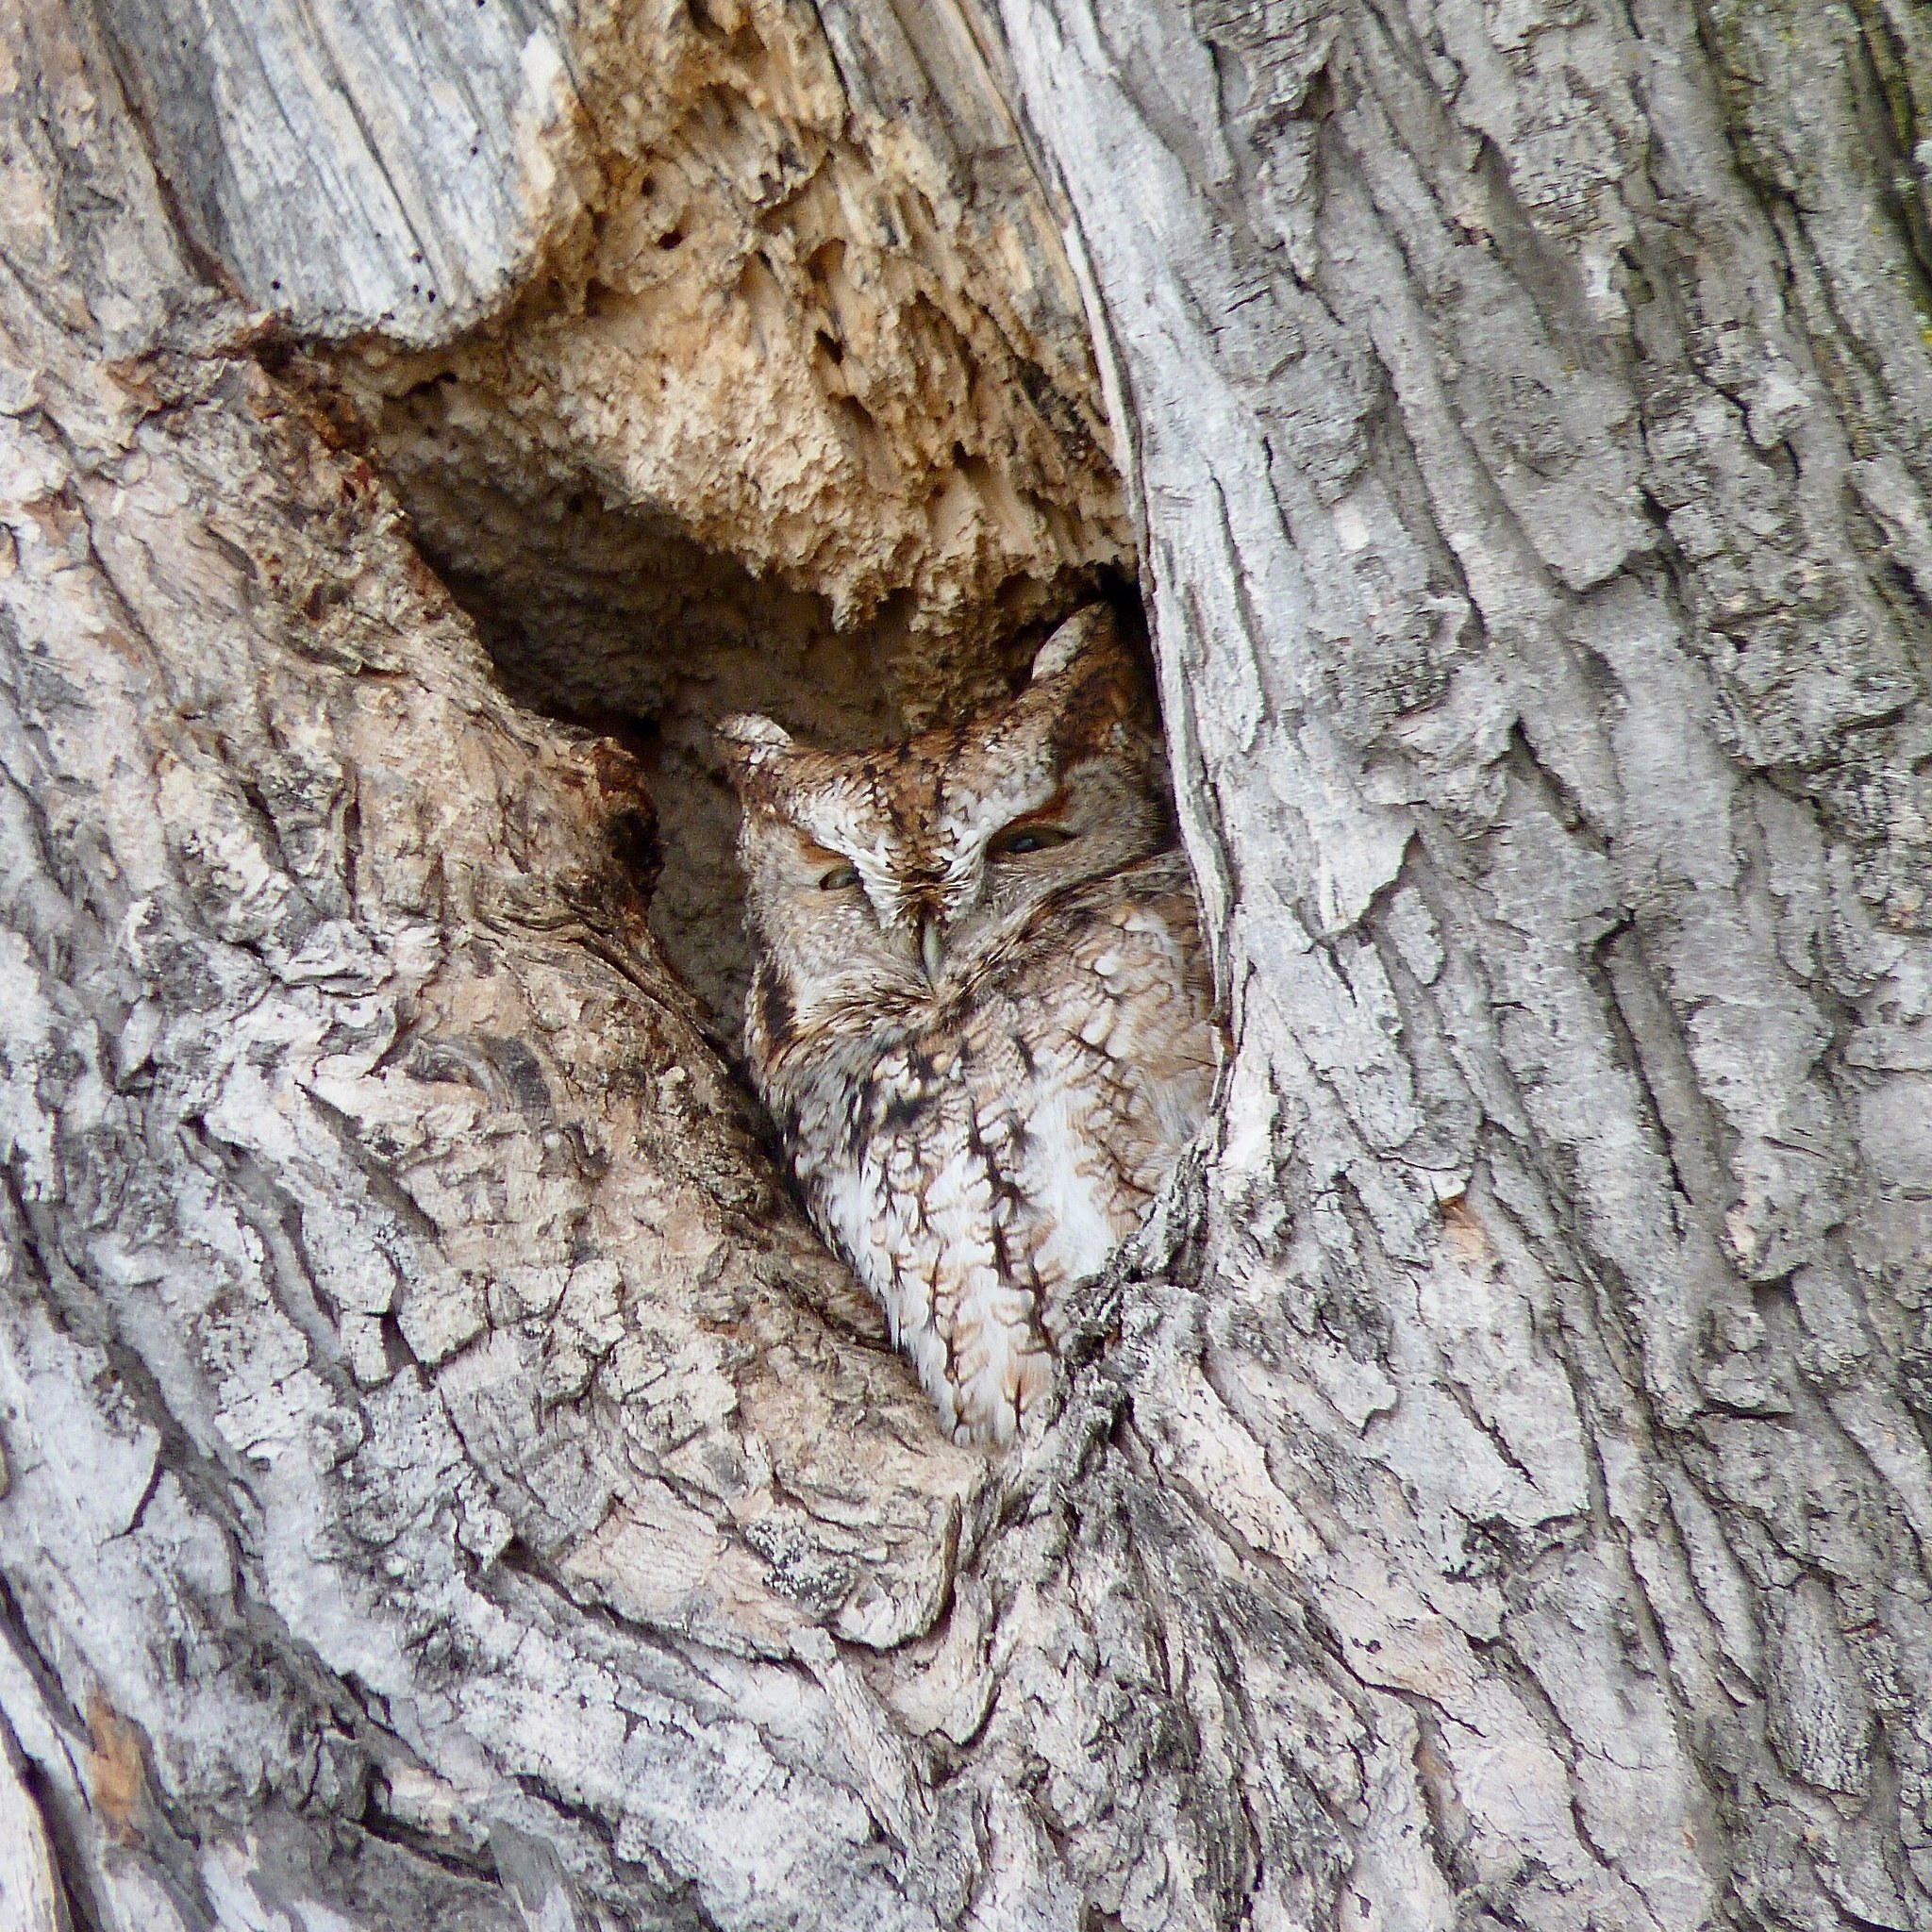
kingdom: Animalia
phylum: Chordata
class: Aves
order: Strigiformes
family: Strigidae
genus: Megascops
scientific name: Megascops asio
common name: Eastern screech-owl
